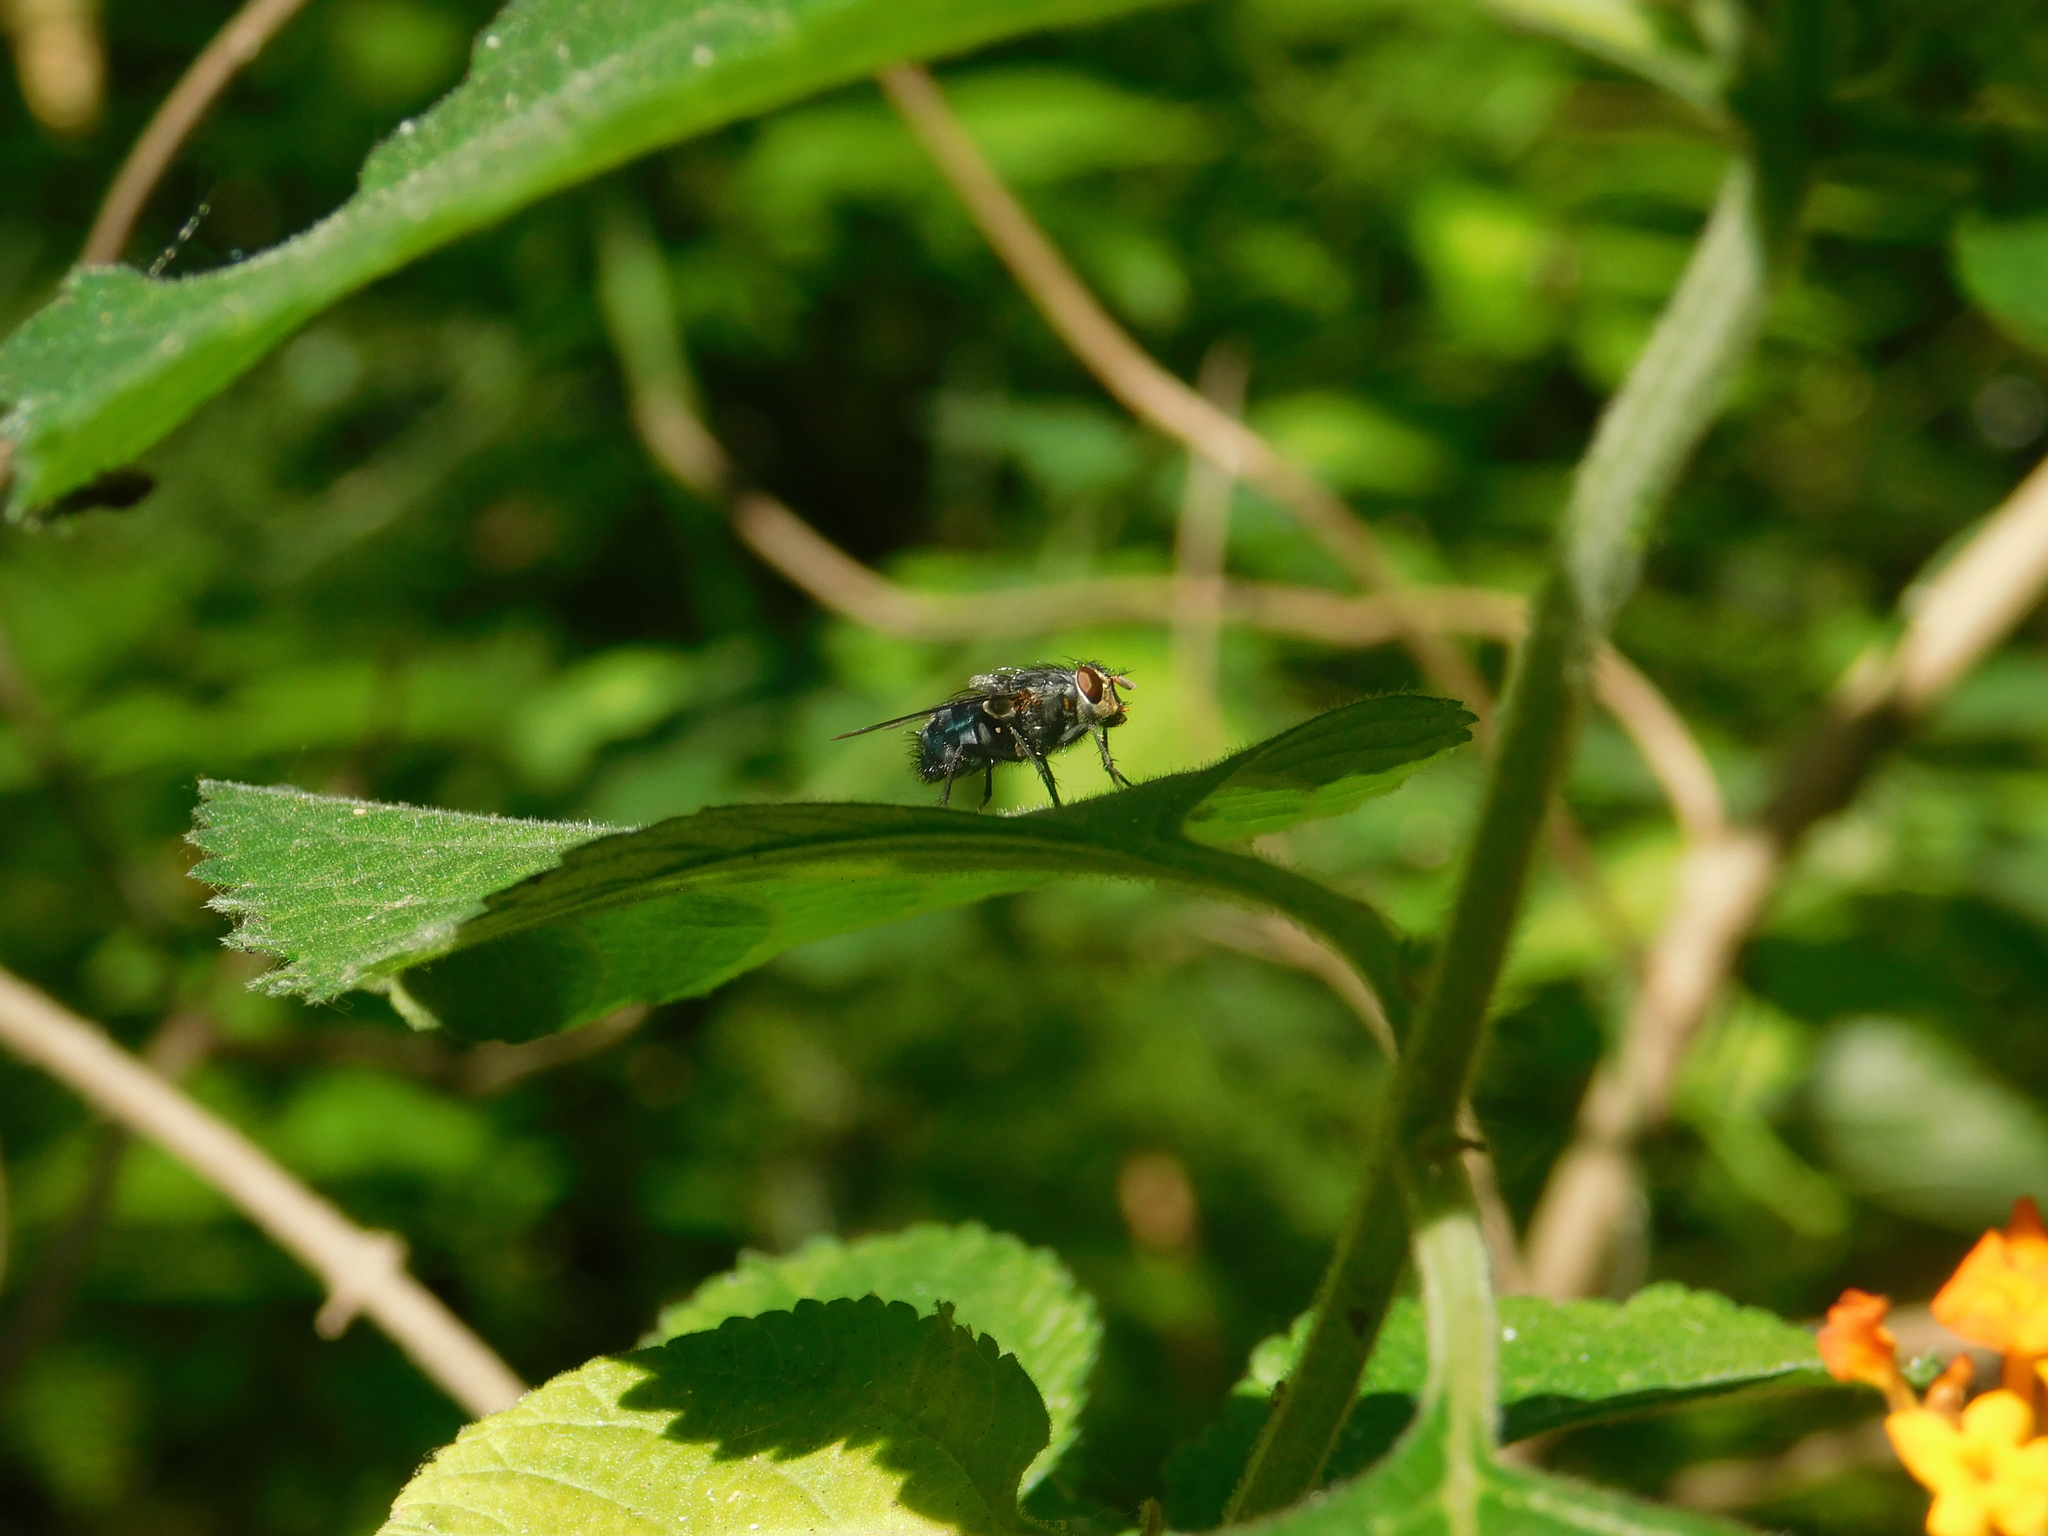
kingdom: Animalia
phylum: Arthropoda
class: Insecta
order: Diptera
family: Calliphoridae
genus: Calliphora
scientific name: Calliphora vicina
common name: Common blow flie
